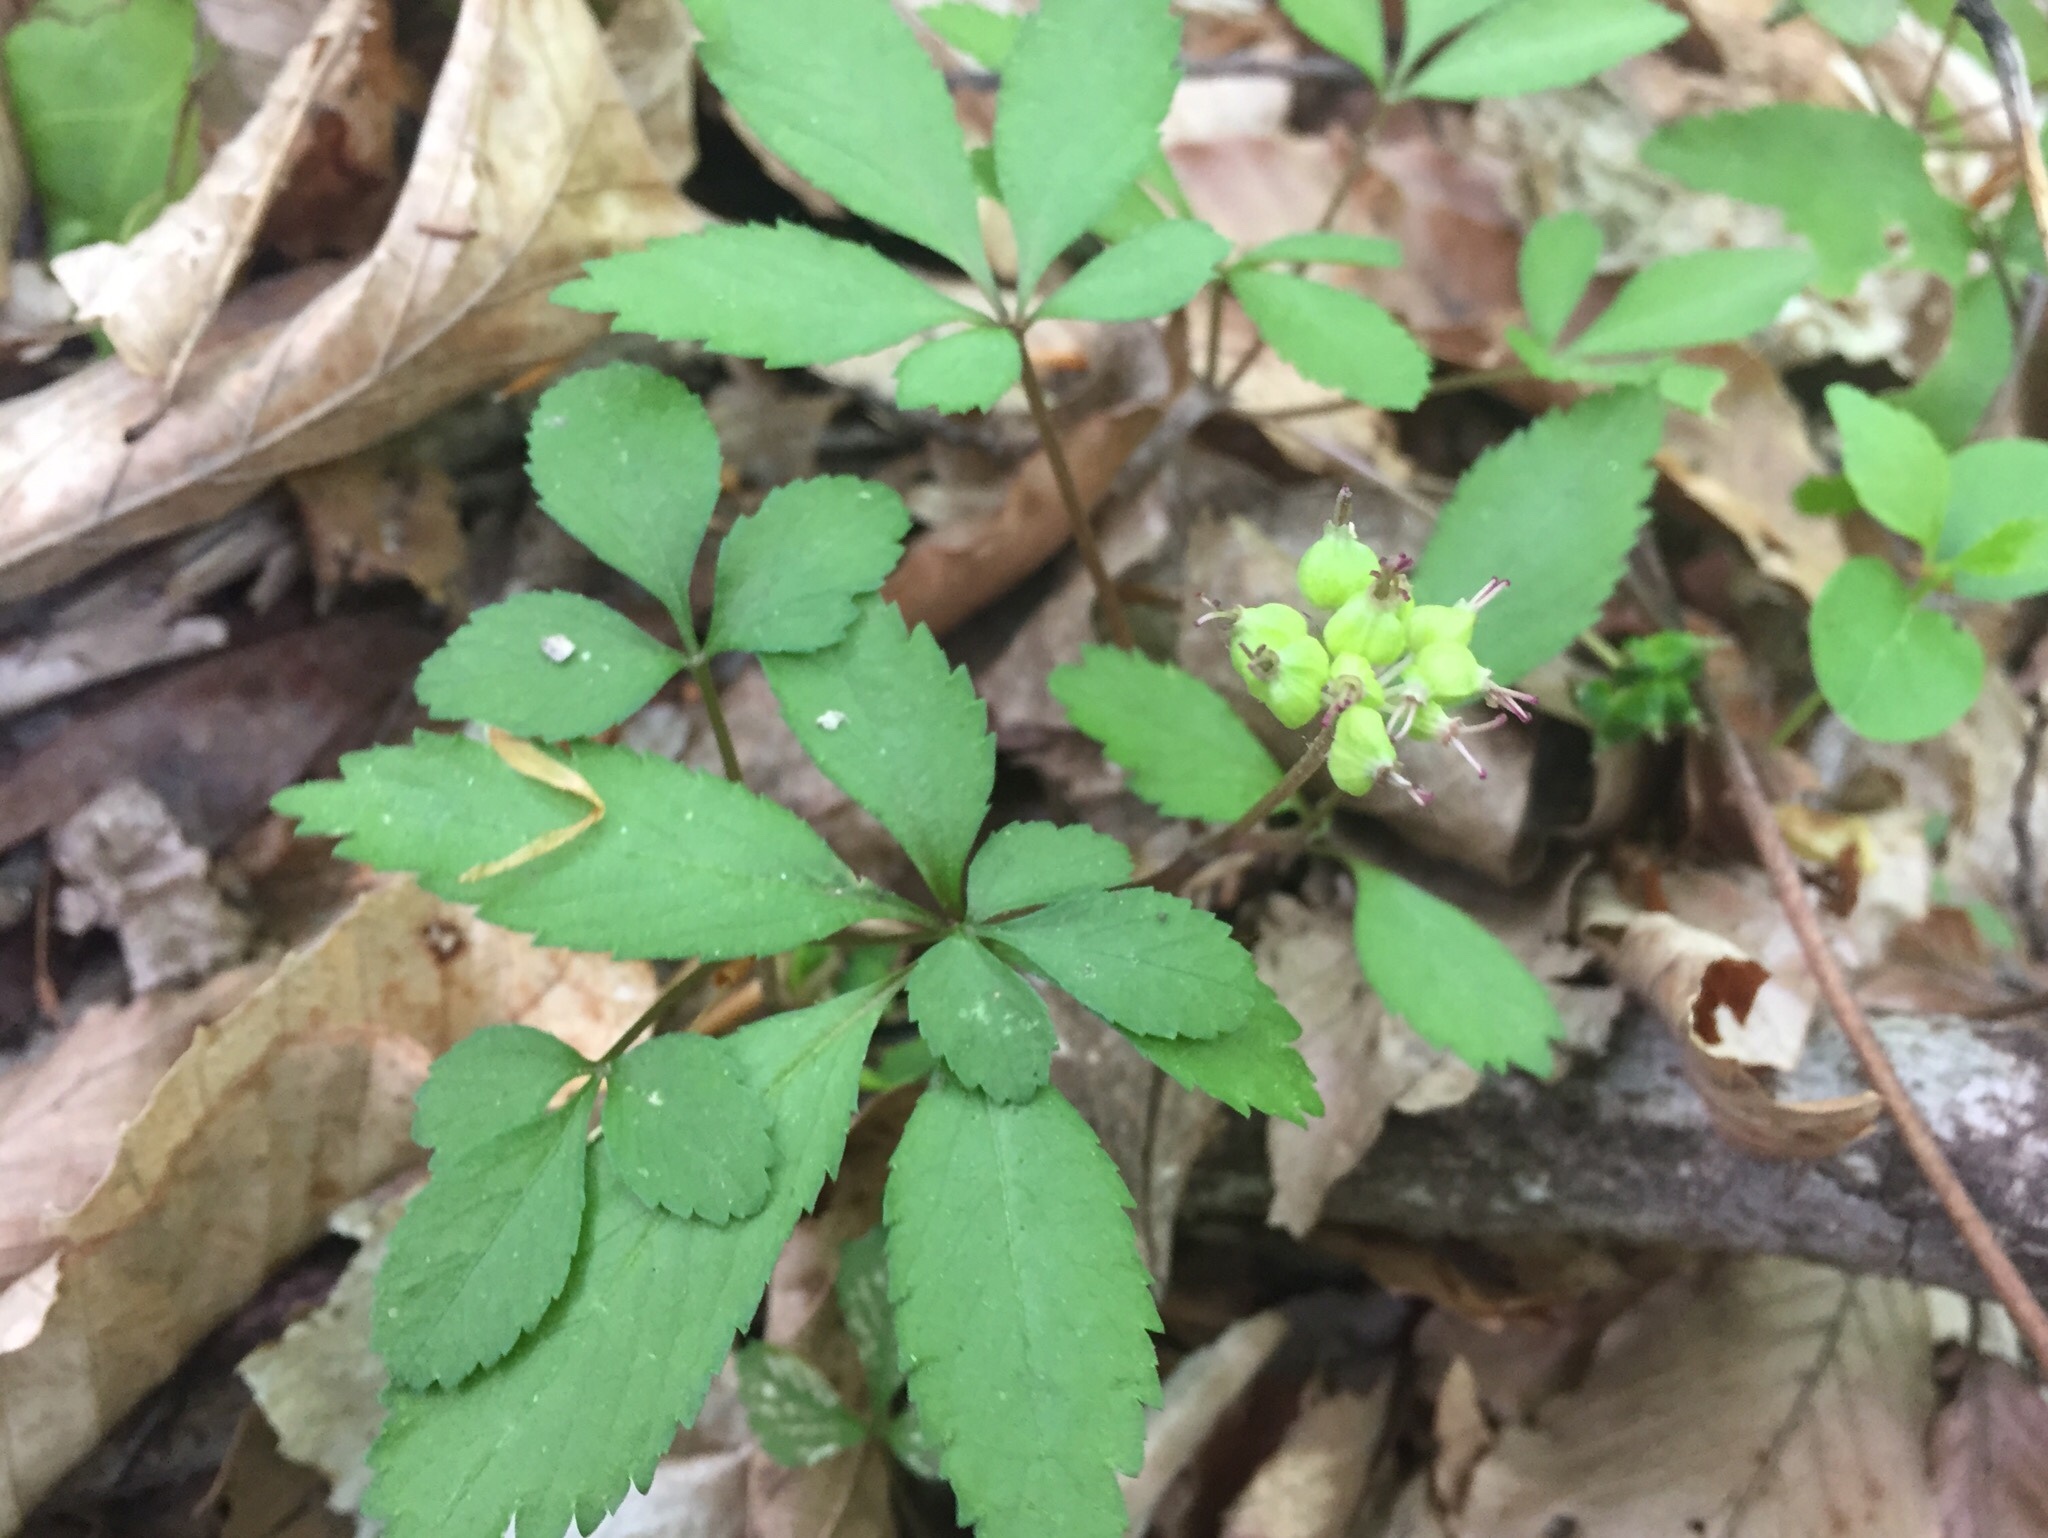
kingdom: Plantae
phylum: Tracheophyta
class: Magnoliopsida
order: Apiales
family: Araliaceae
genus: Panax
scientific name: Panax trifolius
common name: Dwarf ginseng
